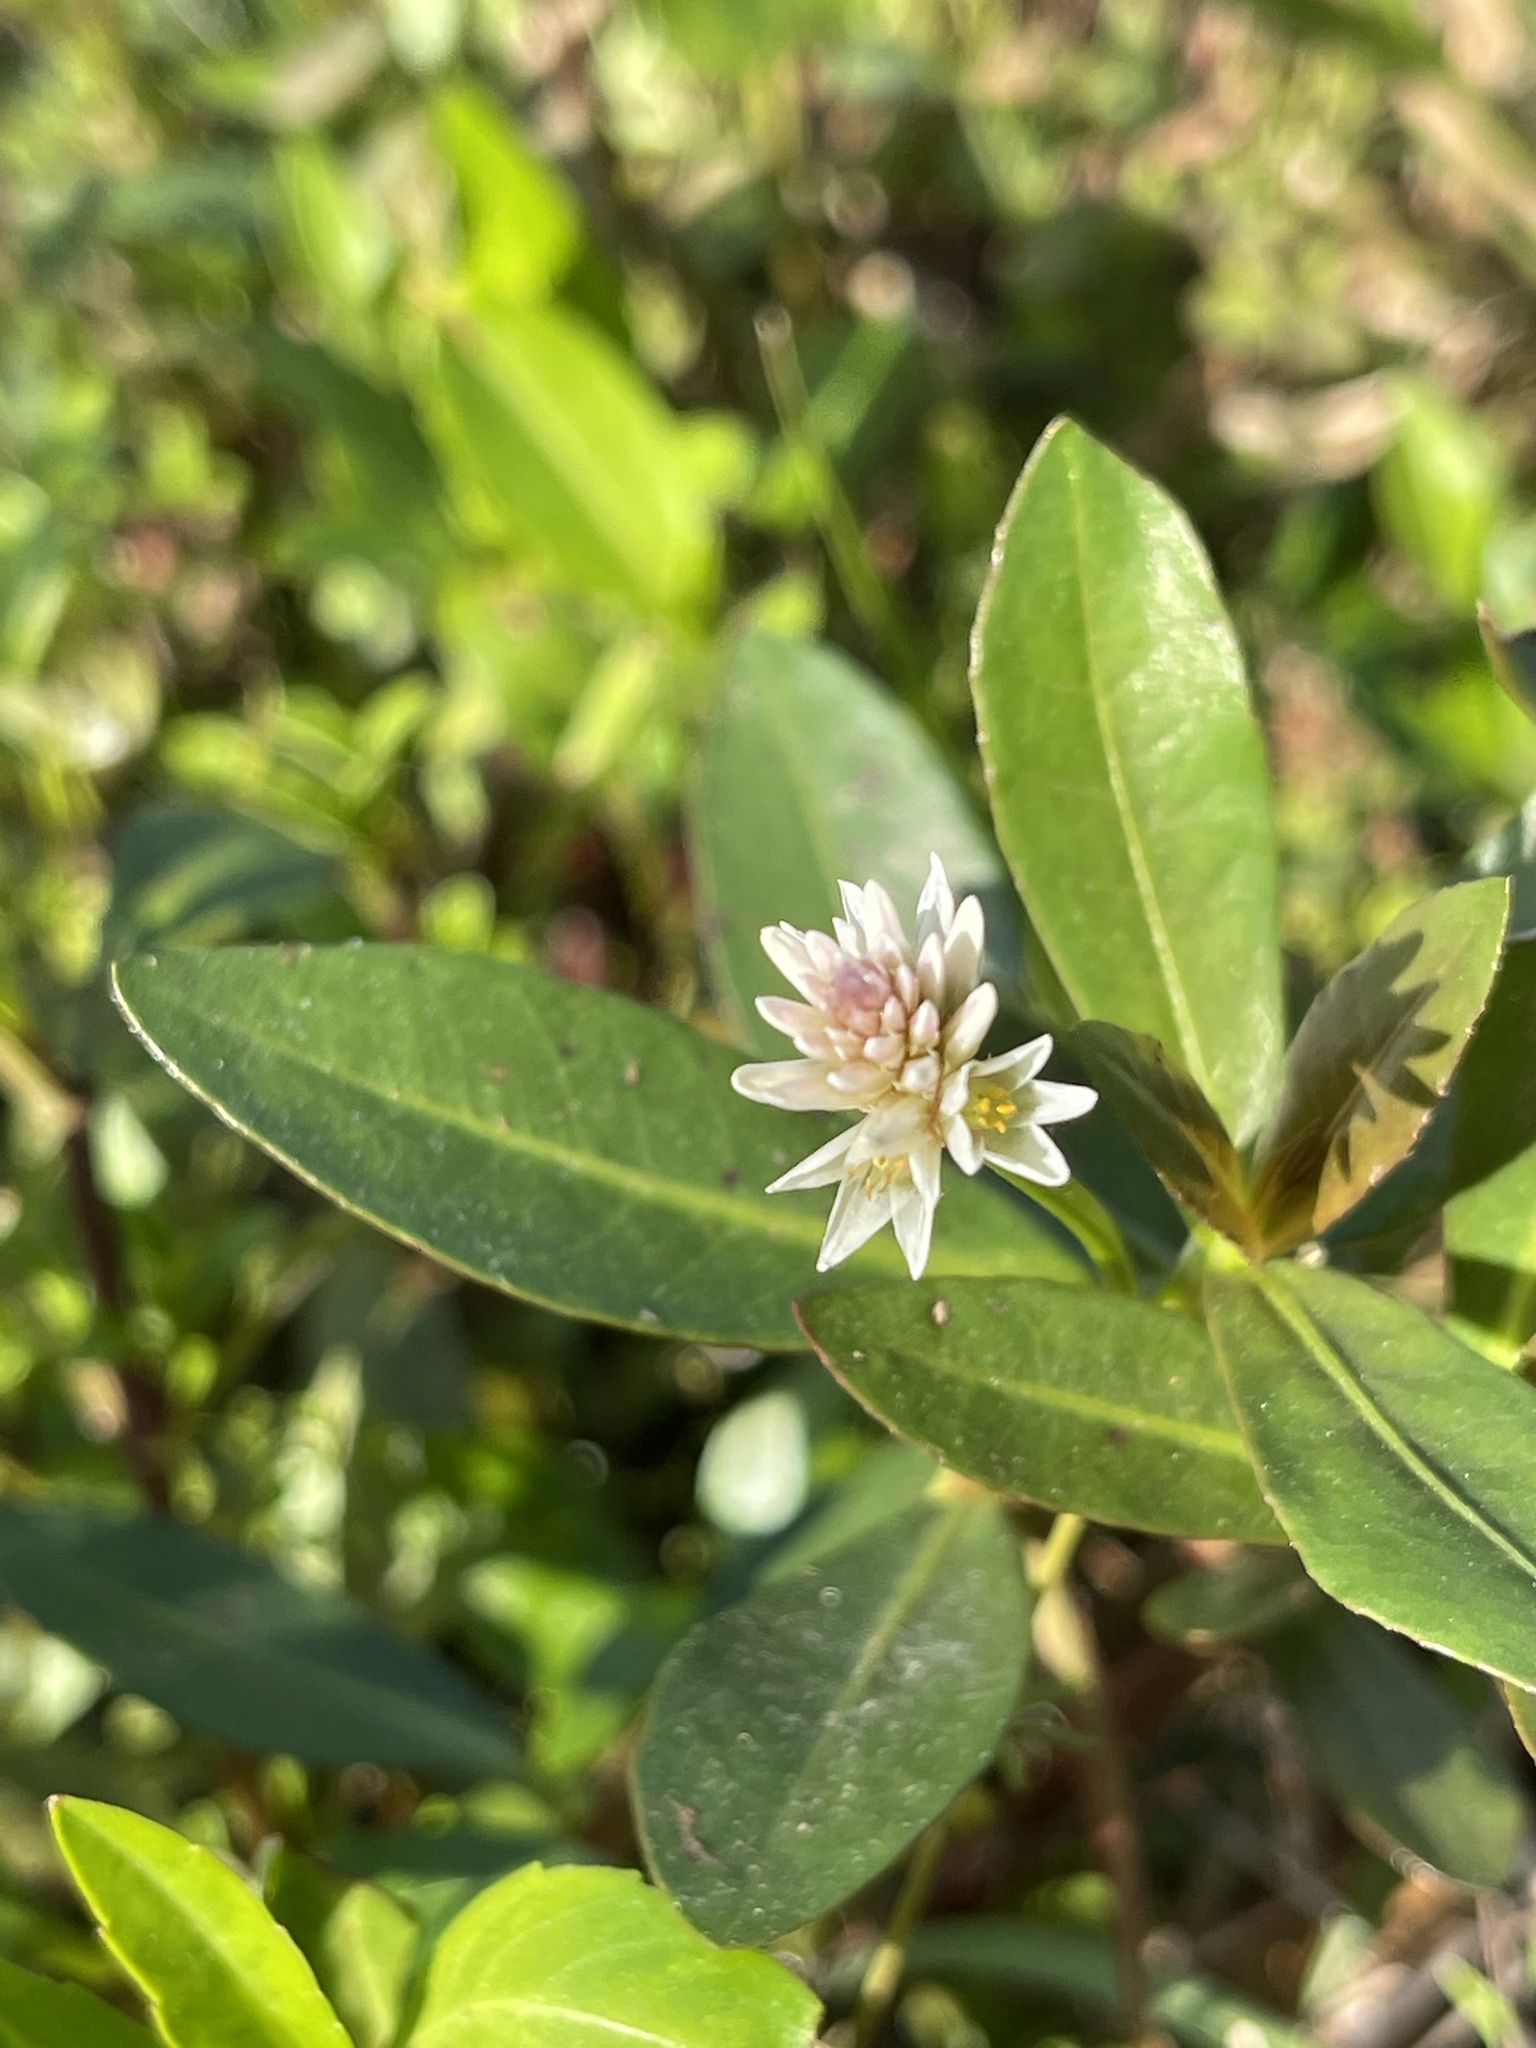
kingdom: Plantae
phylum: Tracheophyta
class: Magnoliopsida
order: Caryophyllales
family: Amaranthaceae
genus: Alternanthera
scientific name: Alternanthera philoxeroides
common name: Alligatorweed
